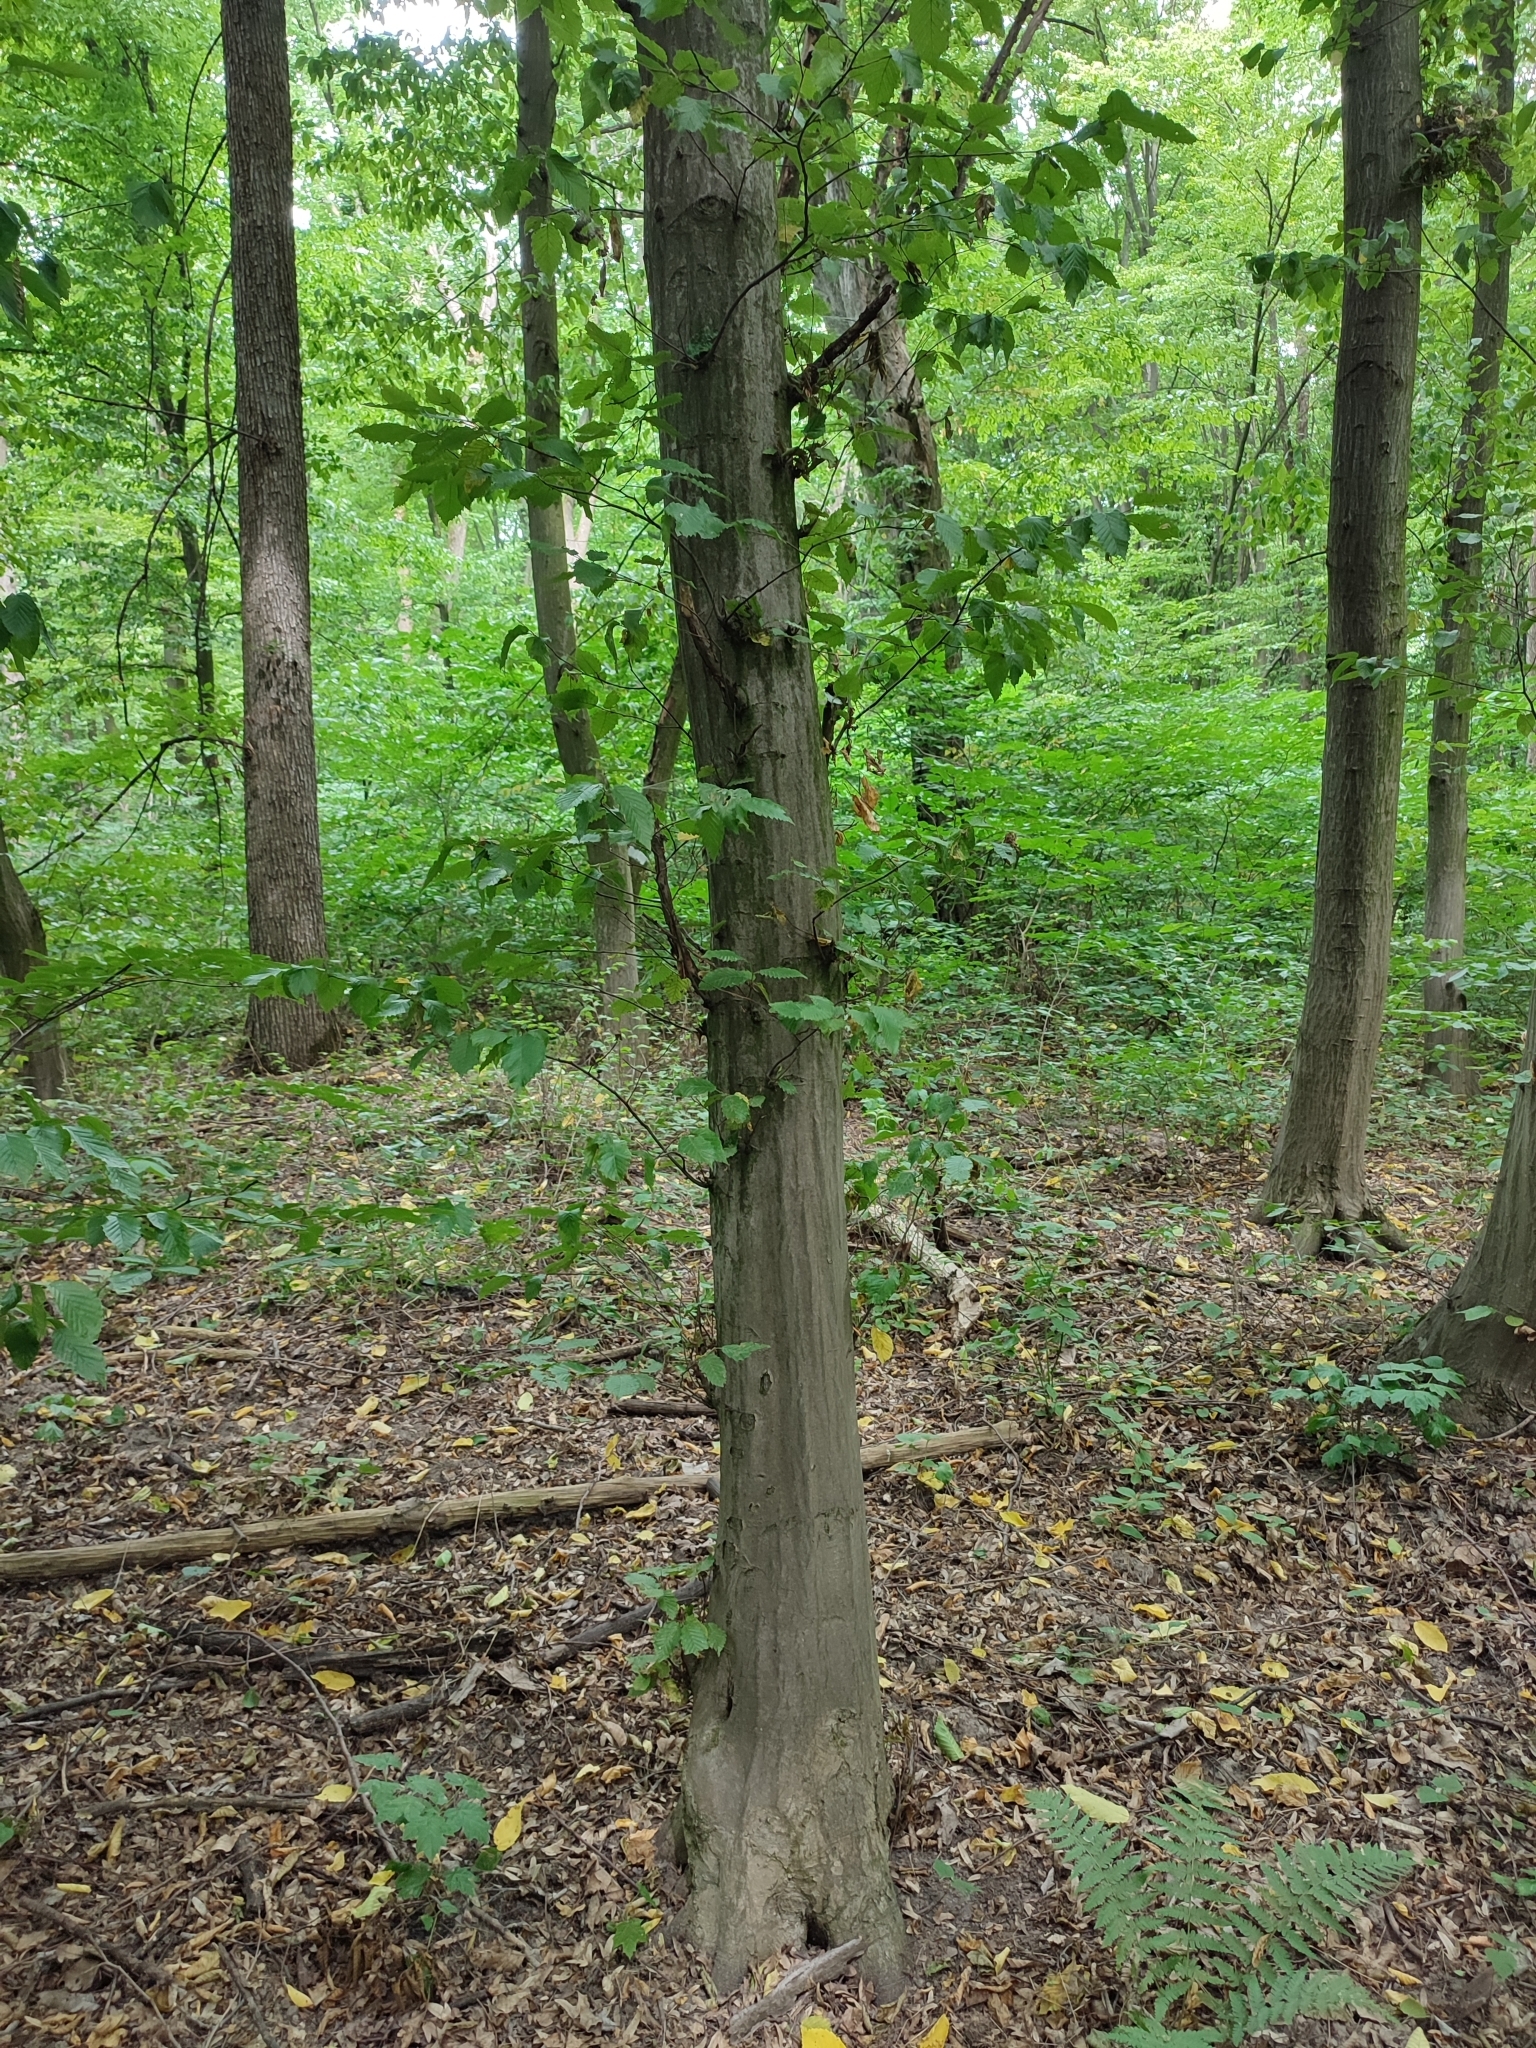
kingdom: Plantae
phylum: Tracheophyta
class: Magnoliopsida
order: Fagales
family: Betulaceae
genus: Carpinus
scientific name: Carpinus betulus
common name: Hornbeam
